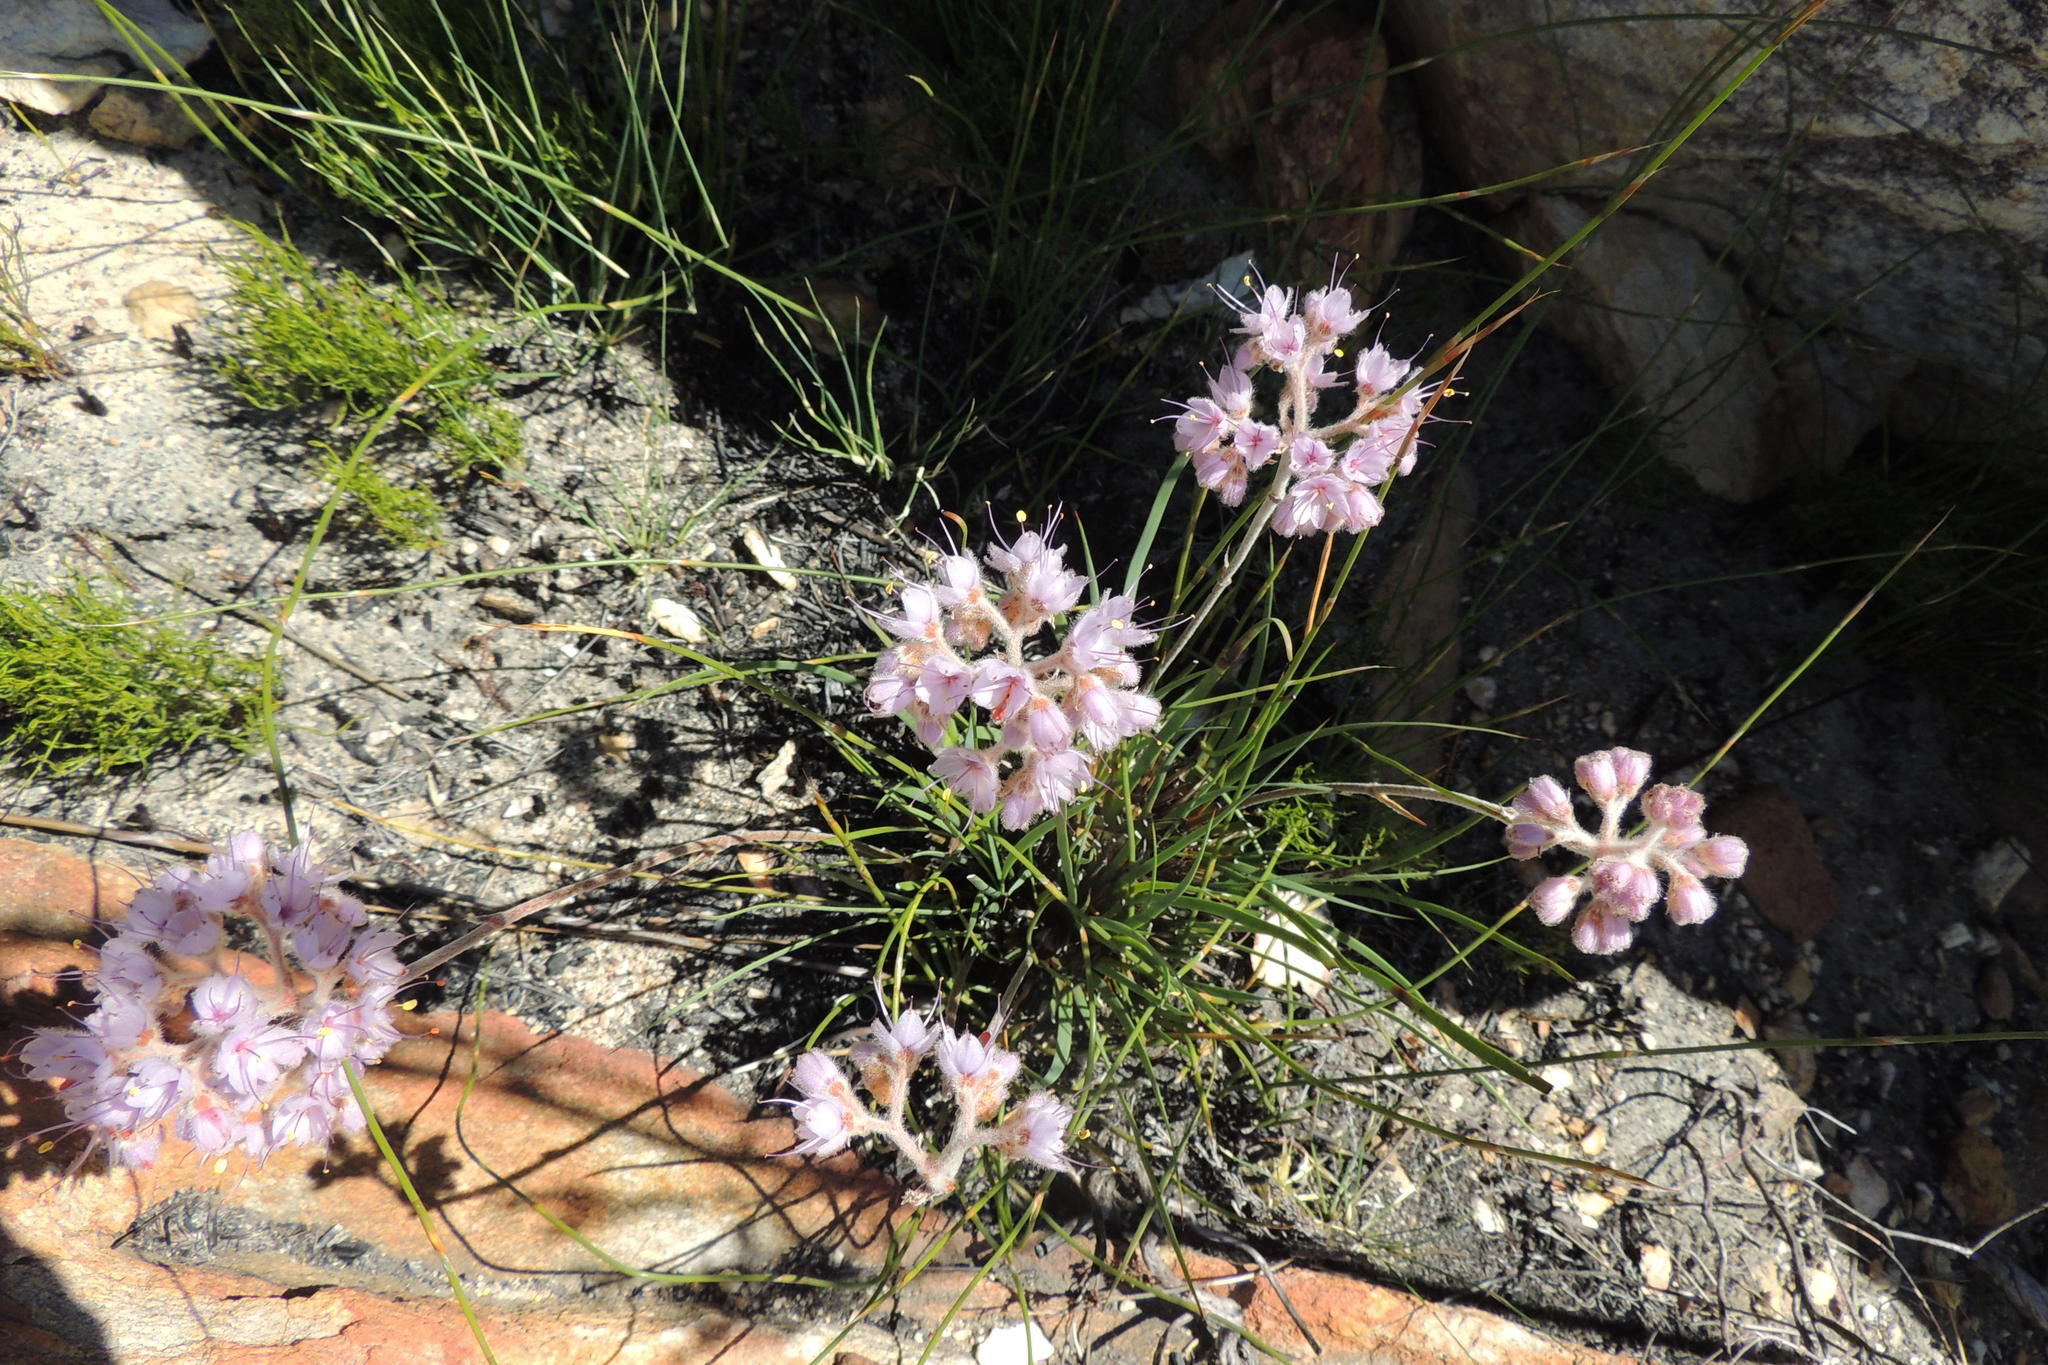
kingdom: Plantae
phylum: Tracheophyta
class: Liliopsida
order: Commelinales
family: Haemodoraceae
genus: Dilatris
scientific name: Dilatris ixioides
